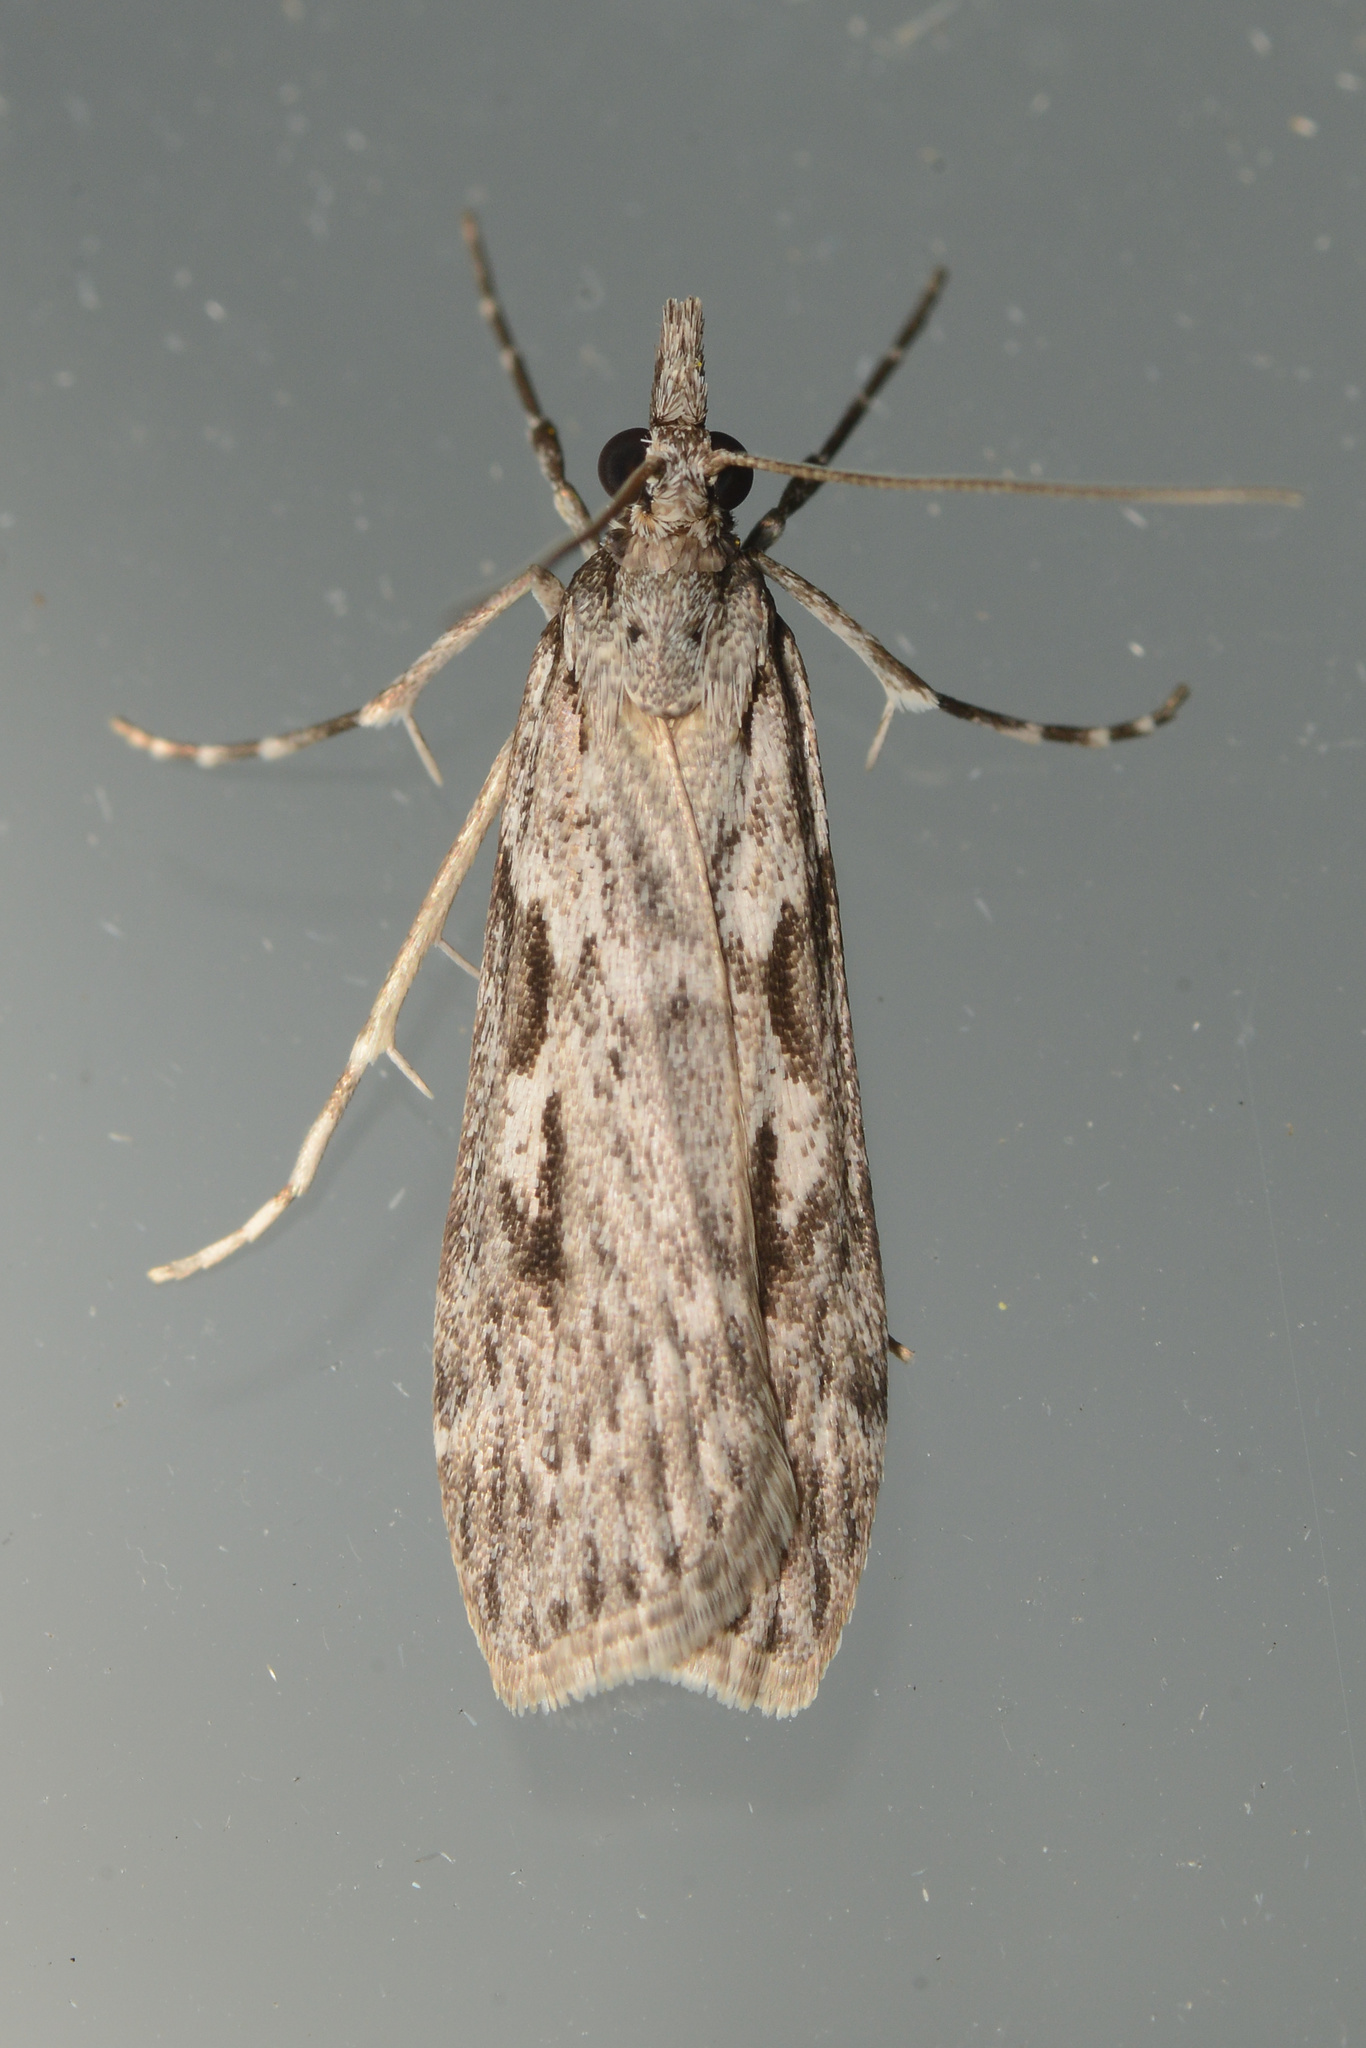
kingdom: Animalia
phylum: Arthropoda
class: Insecta
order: Lepidoptera
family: Crambidae
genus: Scoparia
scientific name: Scoparia halopis
